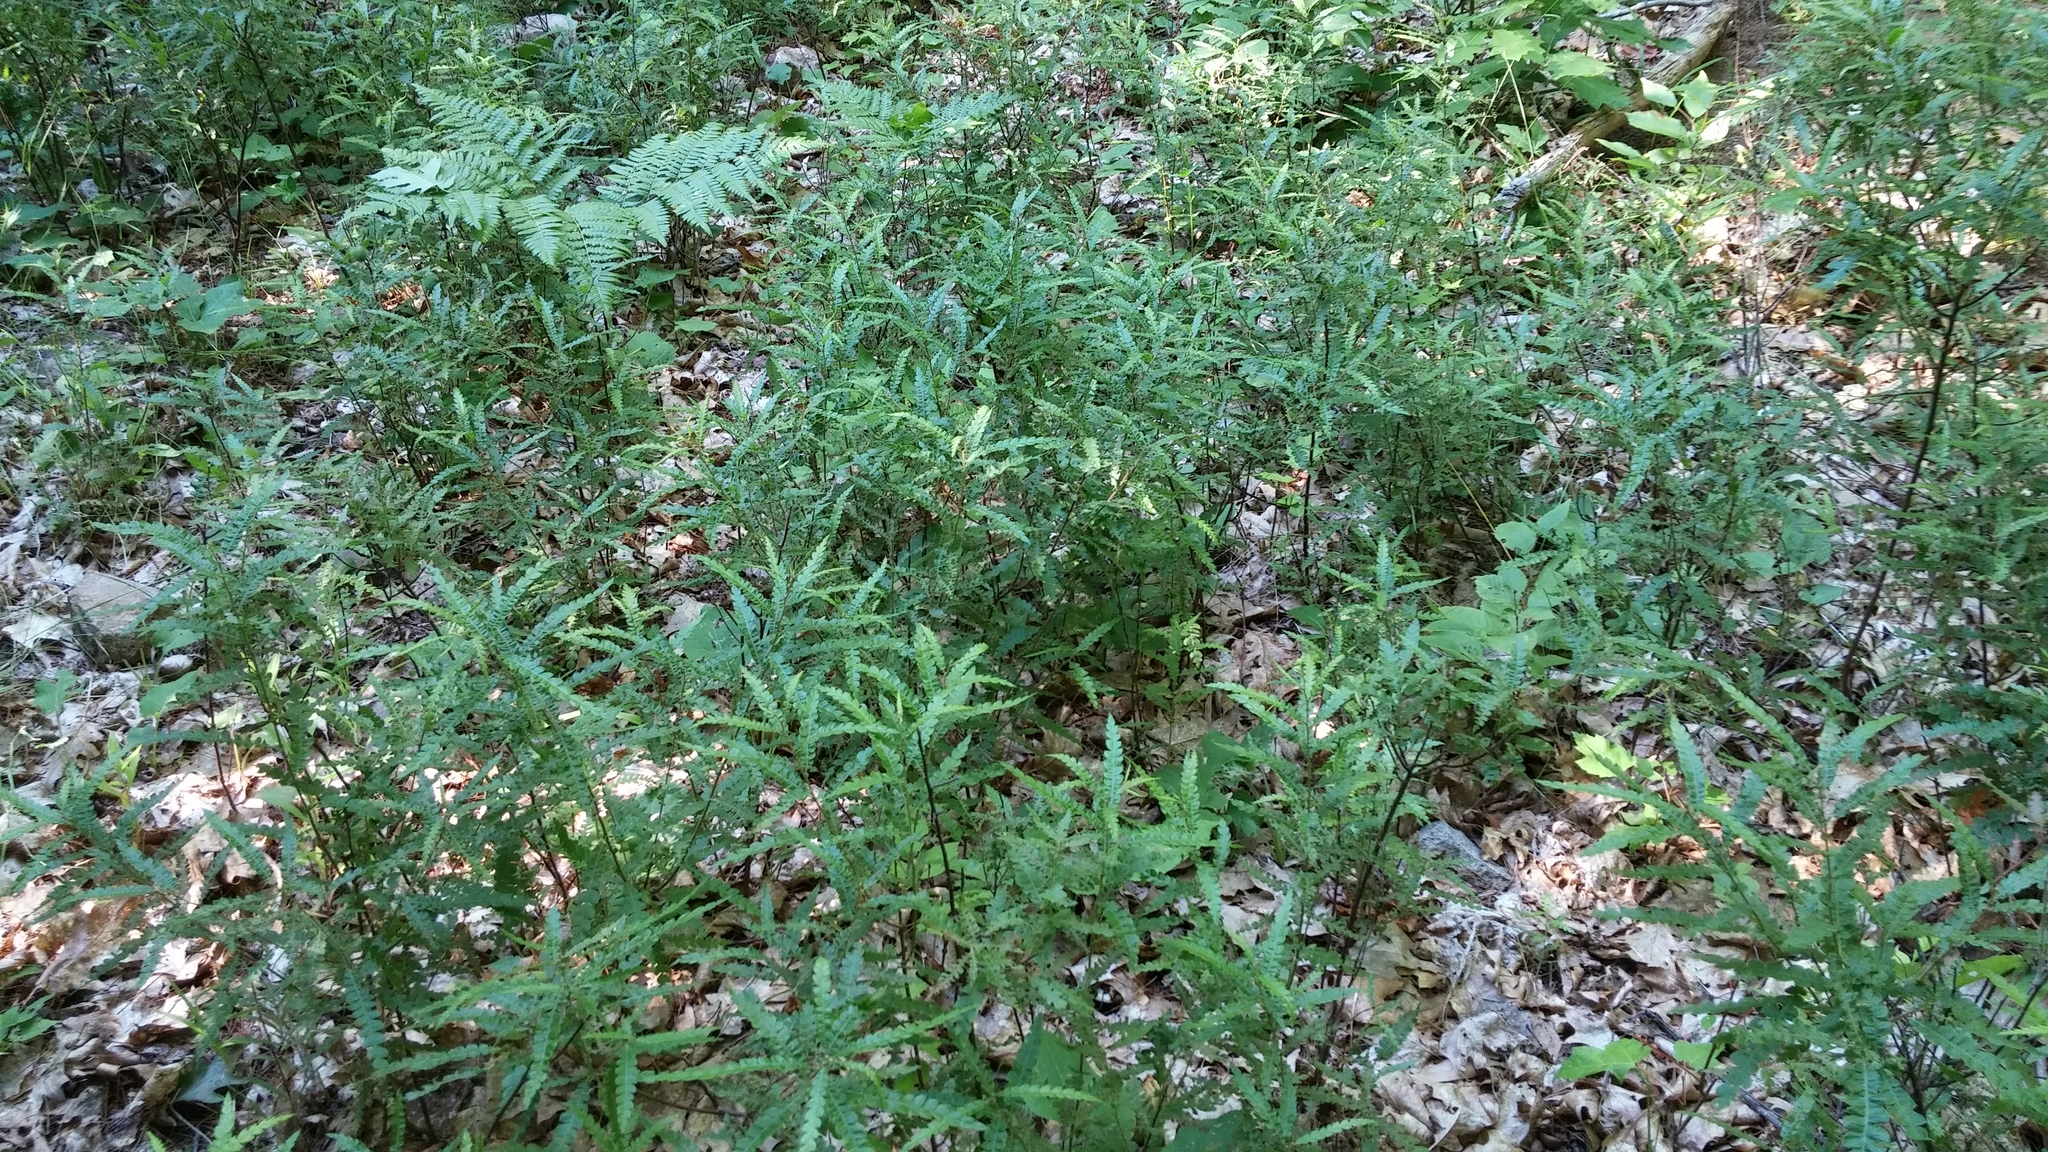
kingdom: Plantae
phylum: Tracheophyta
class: Magnoliopsida
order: Fagales
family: Myricaceae
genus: Comptonia
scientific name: Comptonia peregrina
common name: Sweet-fern
